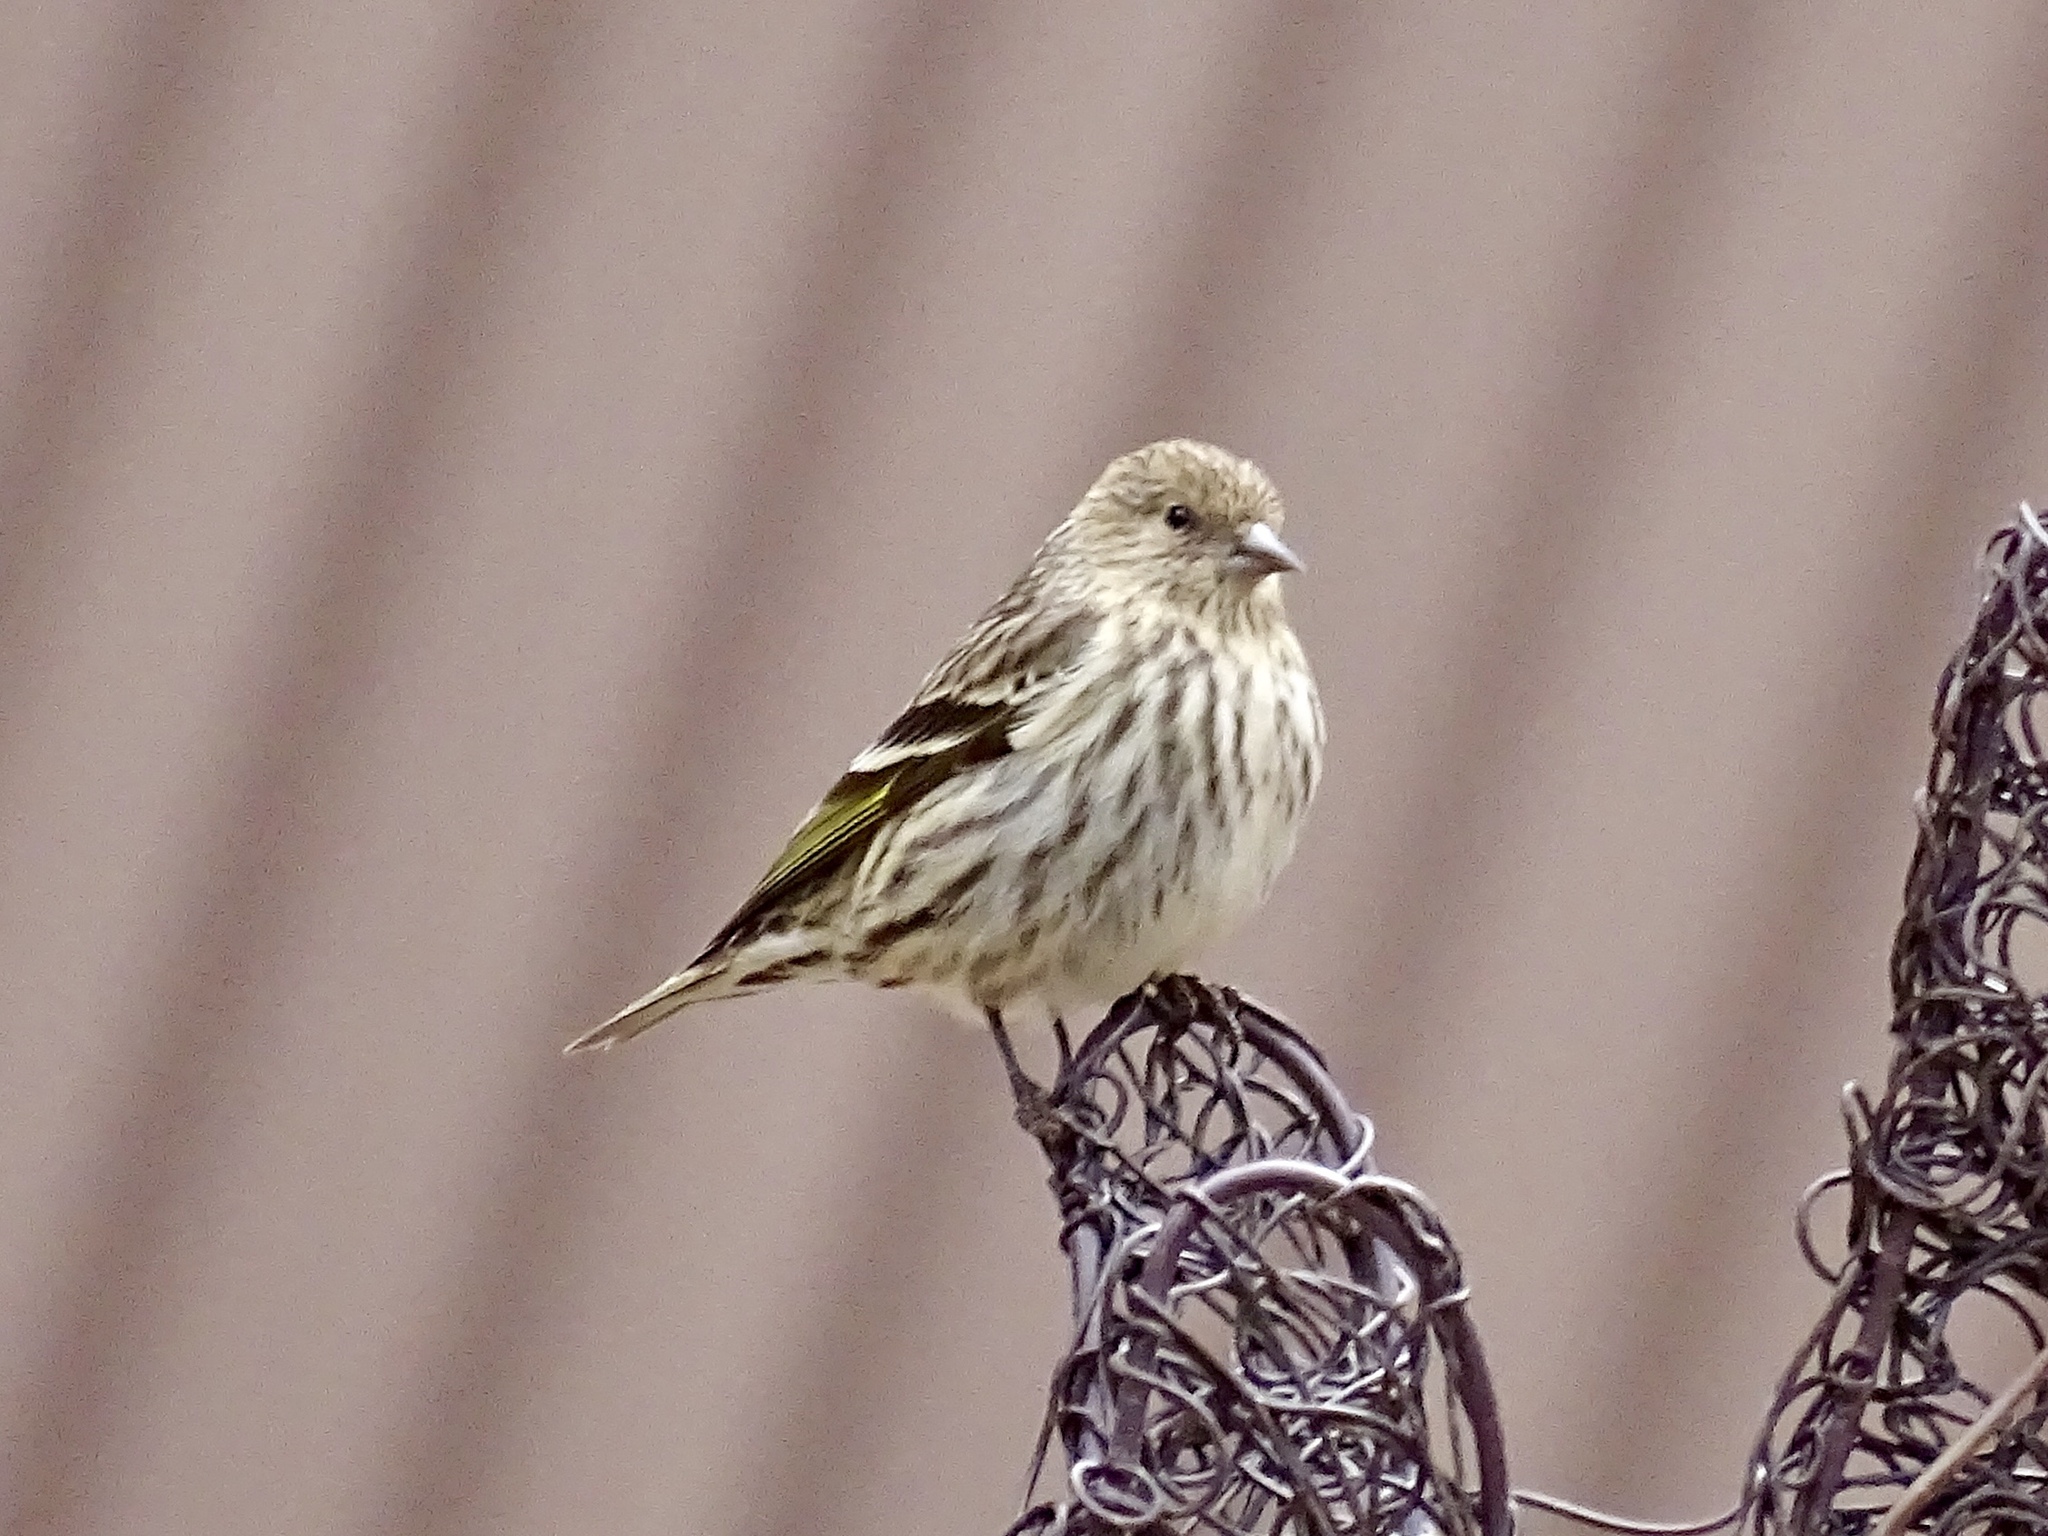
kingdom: Animalia
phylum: Chordata
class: Aves
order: Passeriformes
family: Fringillidae
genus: Spinus
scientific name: Spinus pinus
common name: Pine siskin
